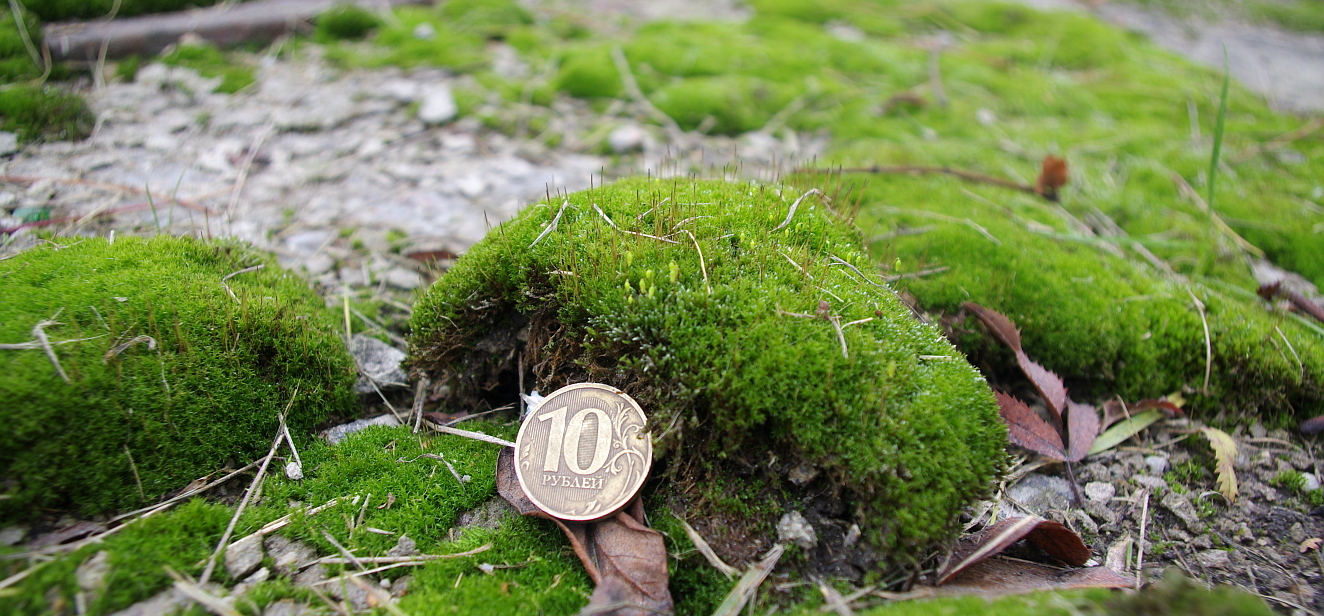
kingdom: Plantae
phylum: Bryophyta
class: Bryopsida
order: Bryales
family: Bryaceae
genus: Bryum
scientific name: Bryum argenteum
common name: Silver-moss
